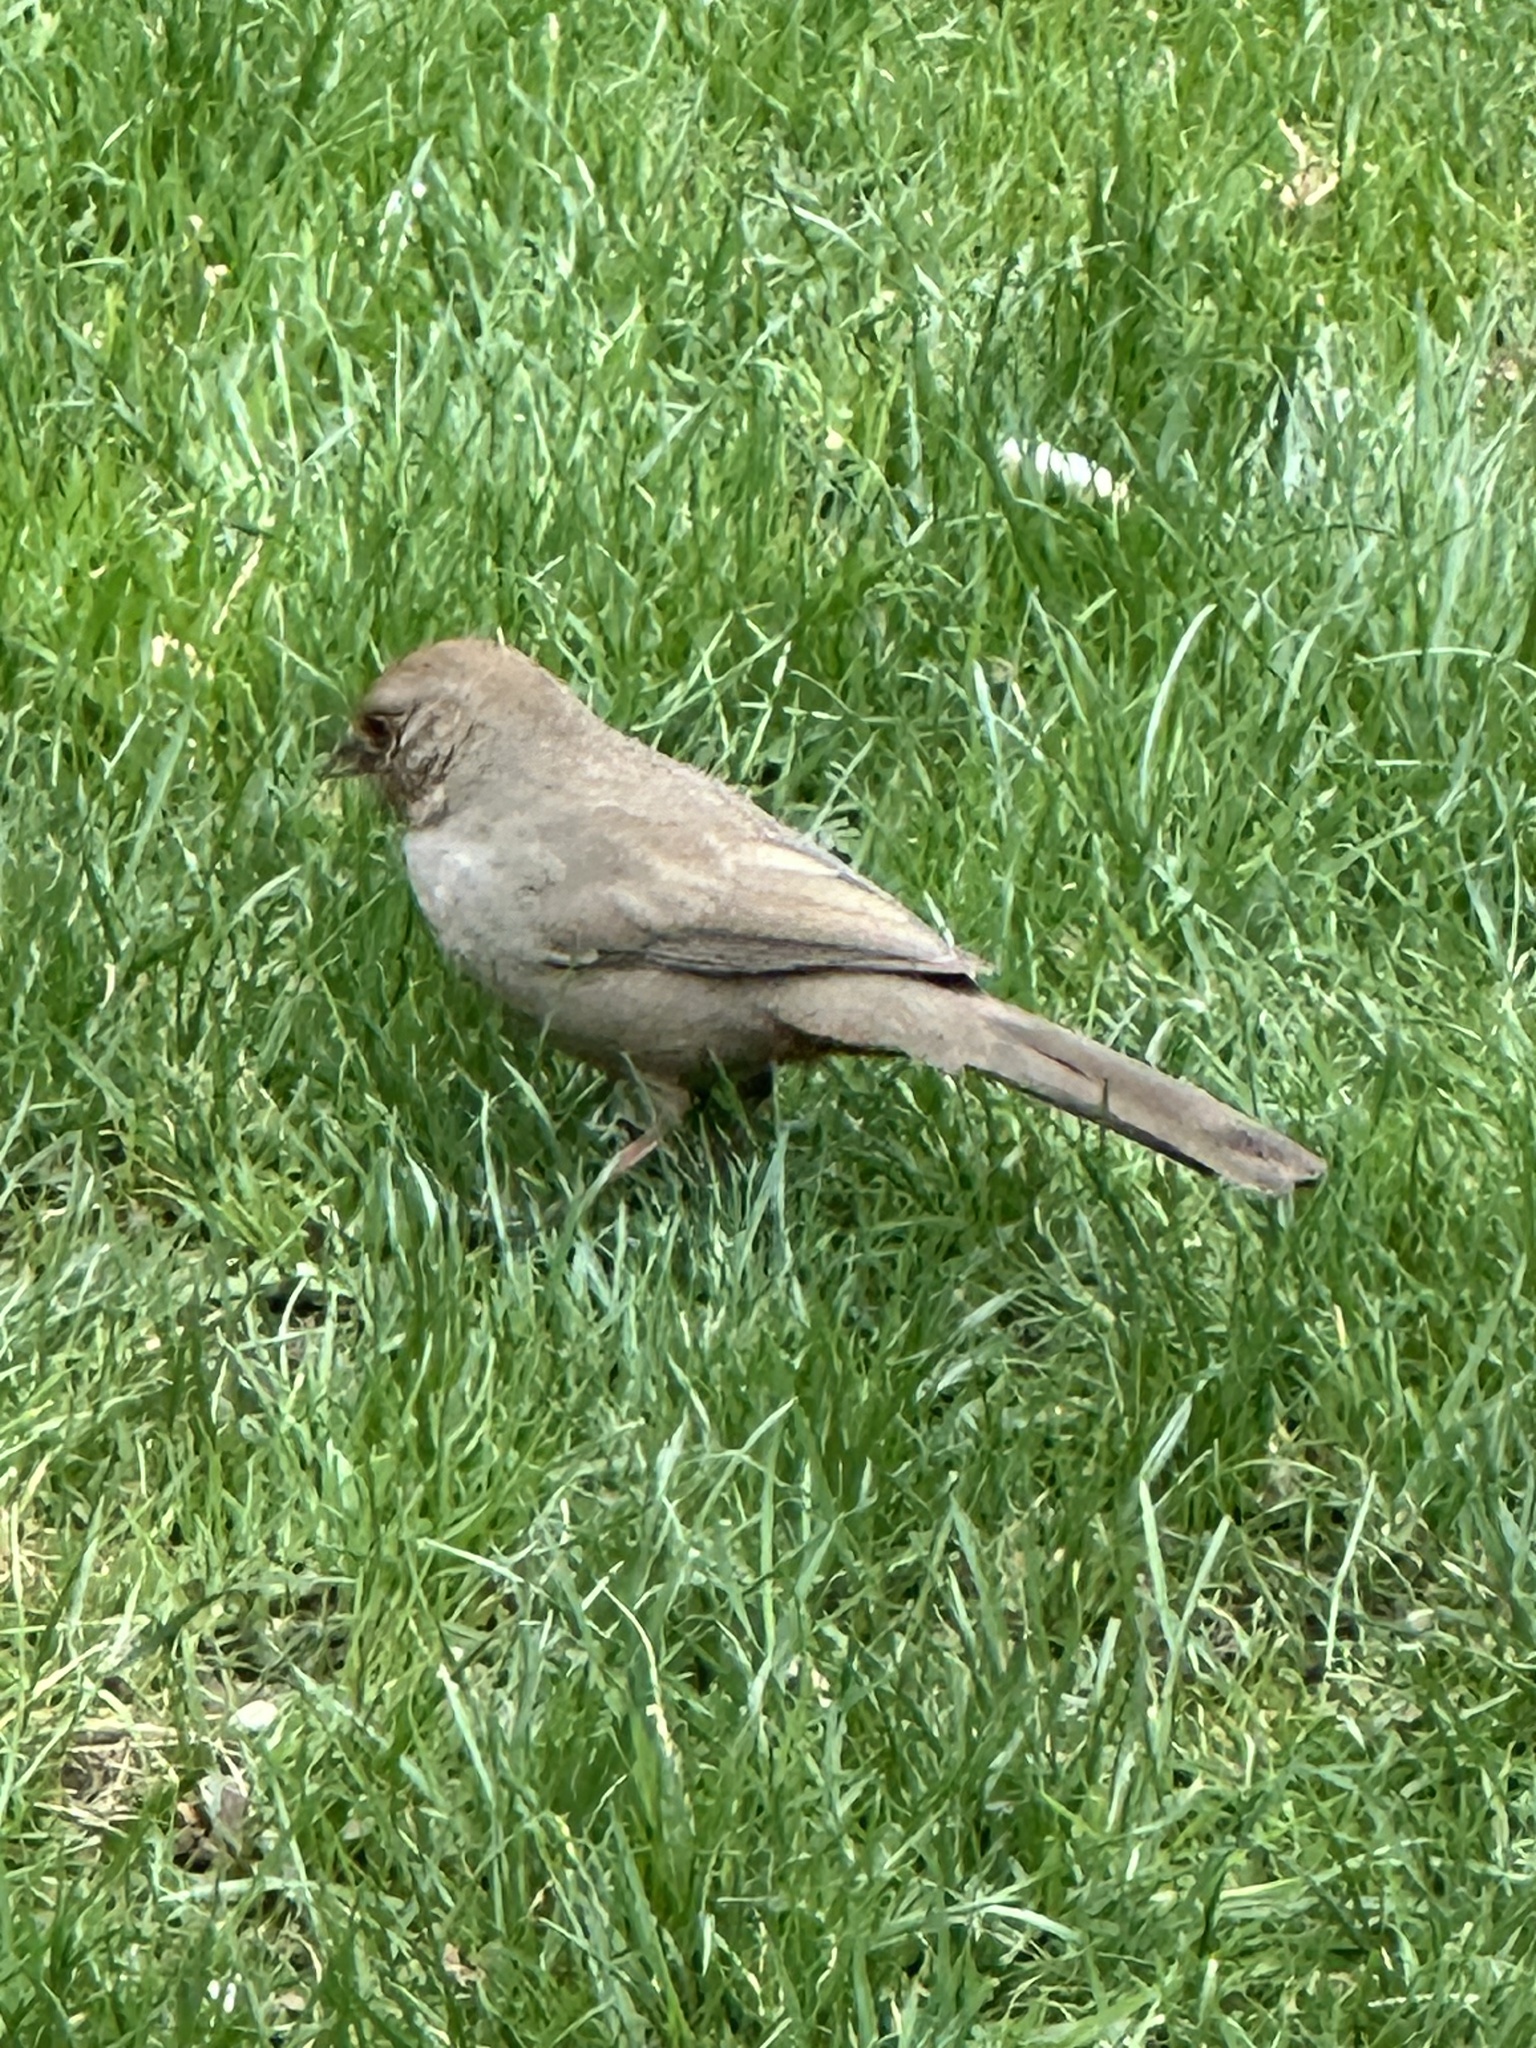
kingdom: Animalia
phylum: Chordata
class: Aves
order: Passeriformes
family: Passerellidae
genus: Melozone
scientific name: Melozone crissalis
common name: California towhee
